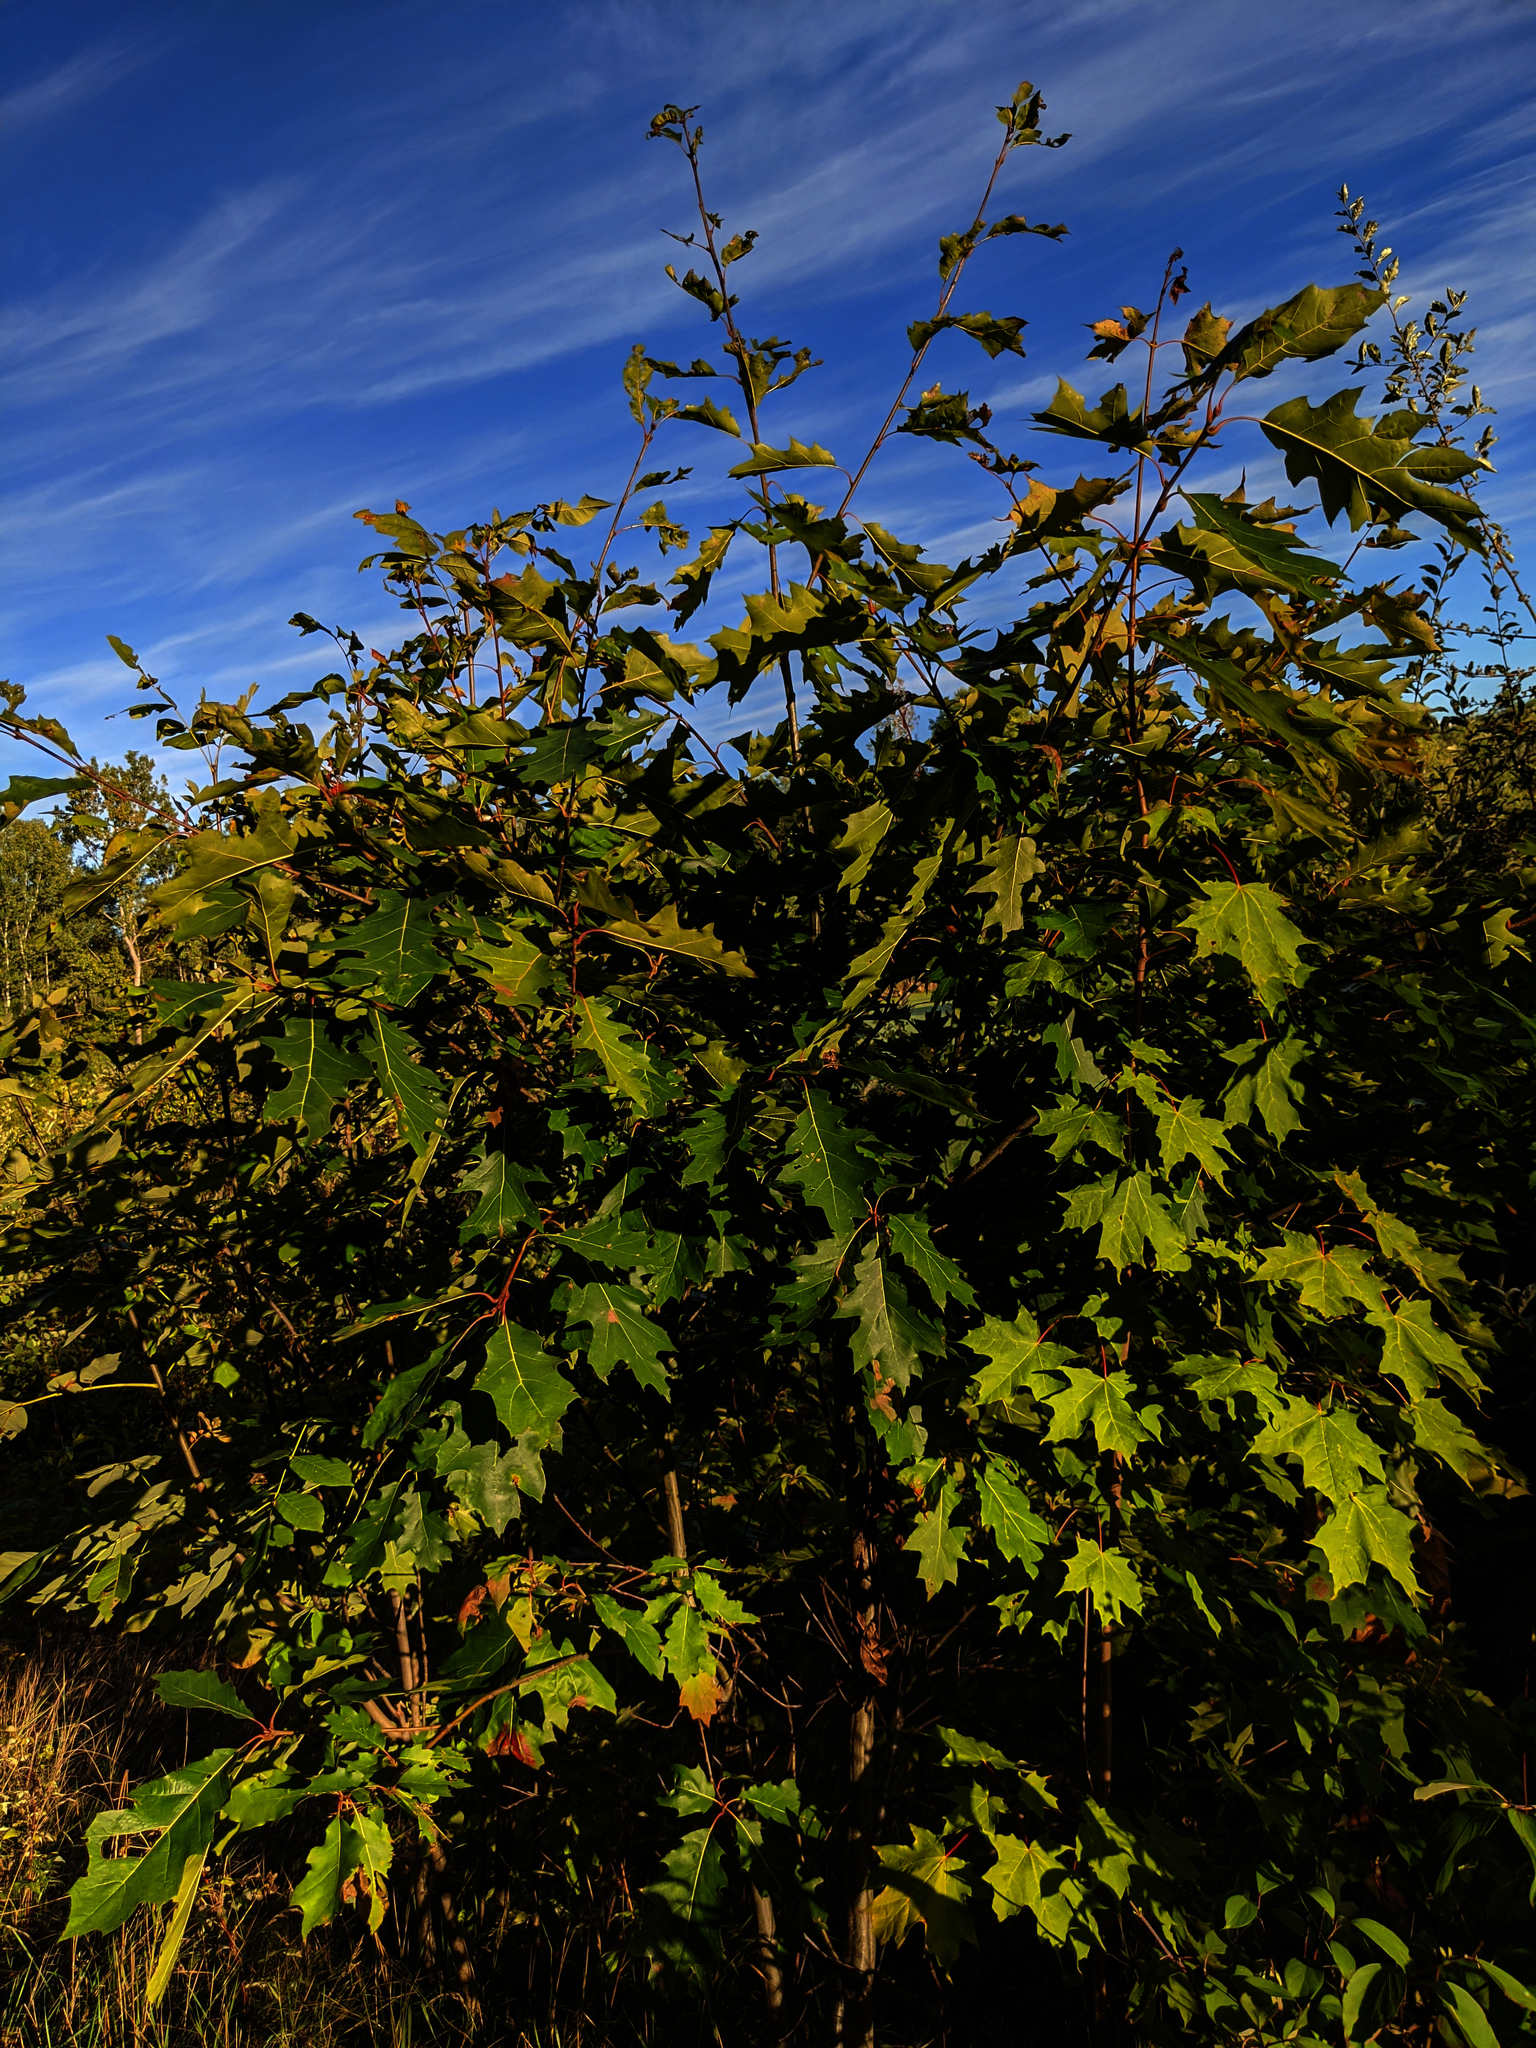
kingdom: Plantae
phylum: Tracheophyta
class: Magnoliopsida
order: Fagales
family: Fagaceae
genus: Quercus
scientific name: Quercus rubra
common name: Red oak
